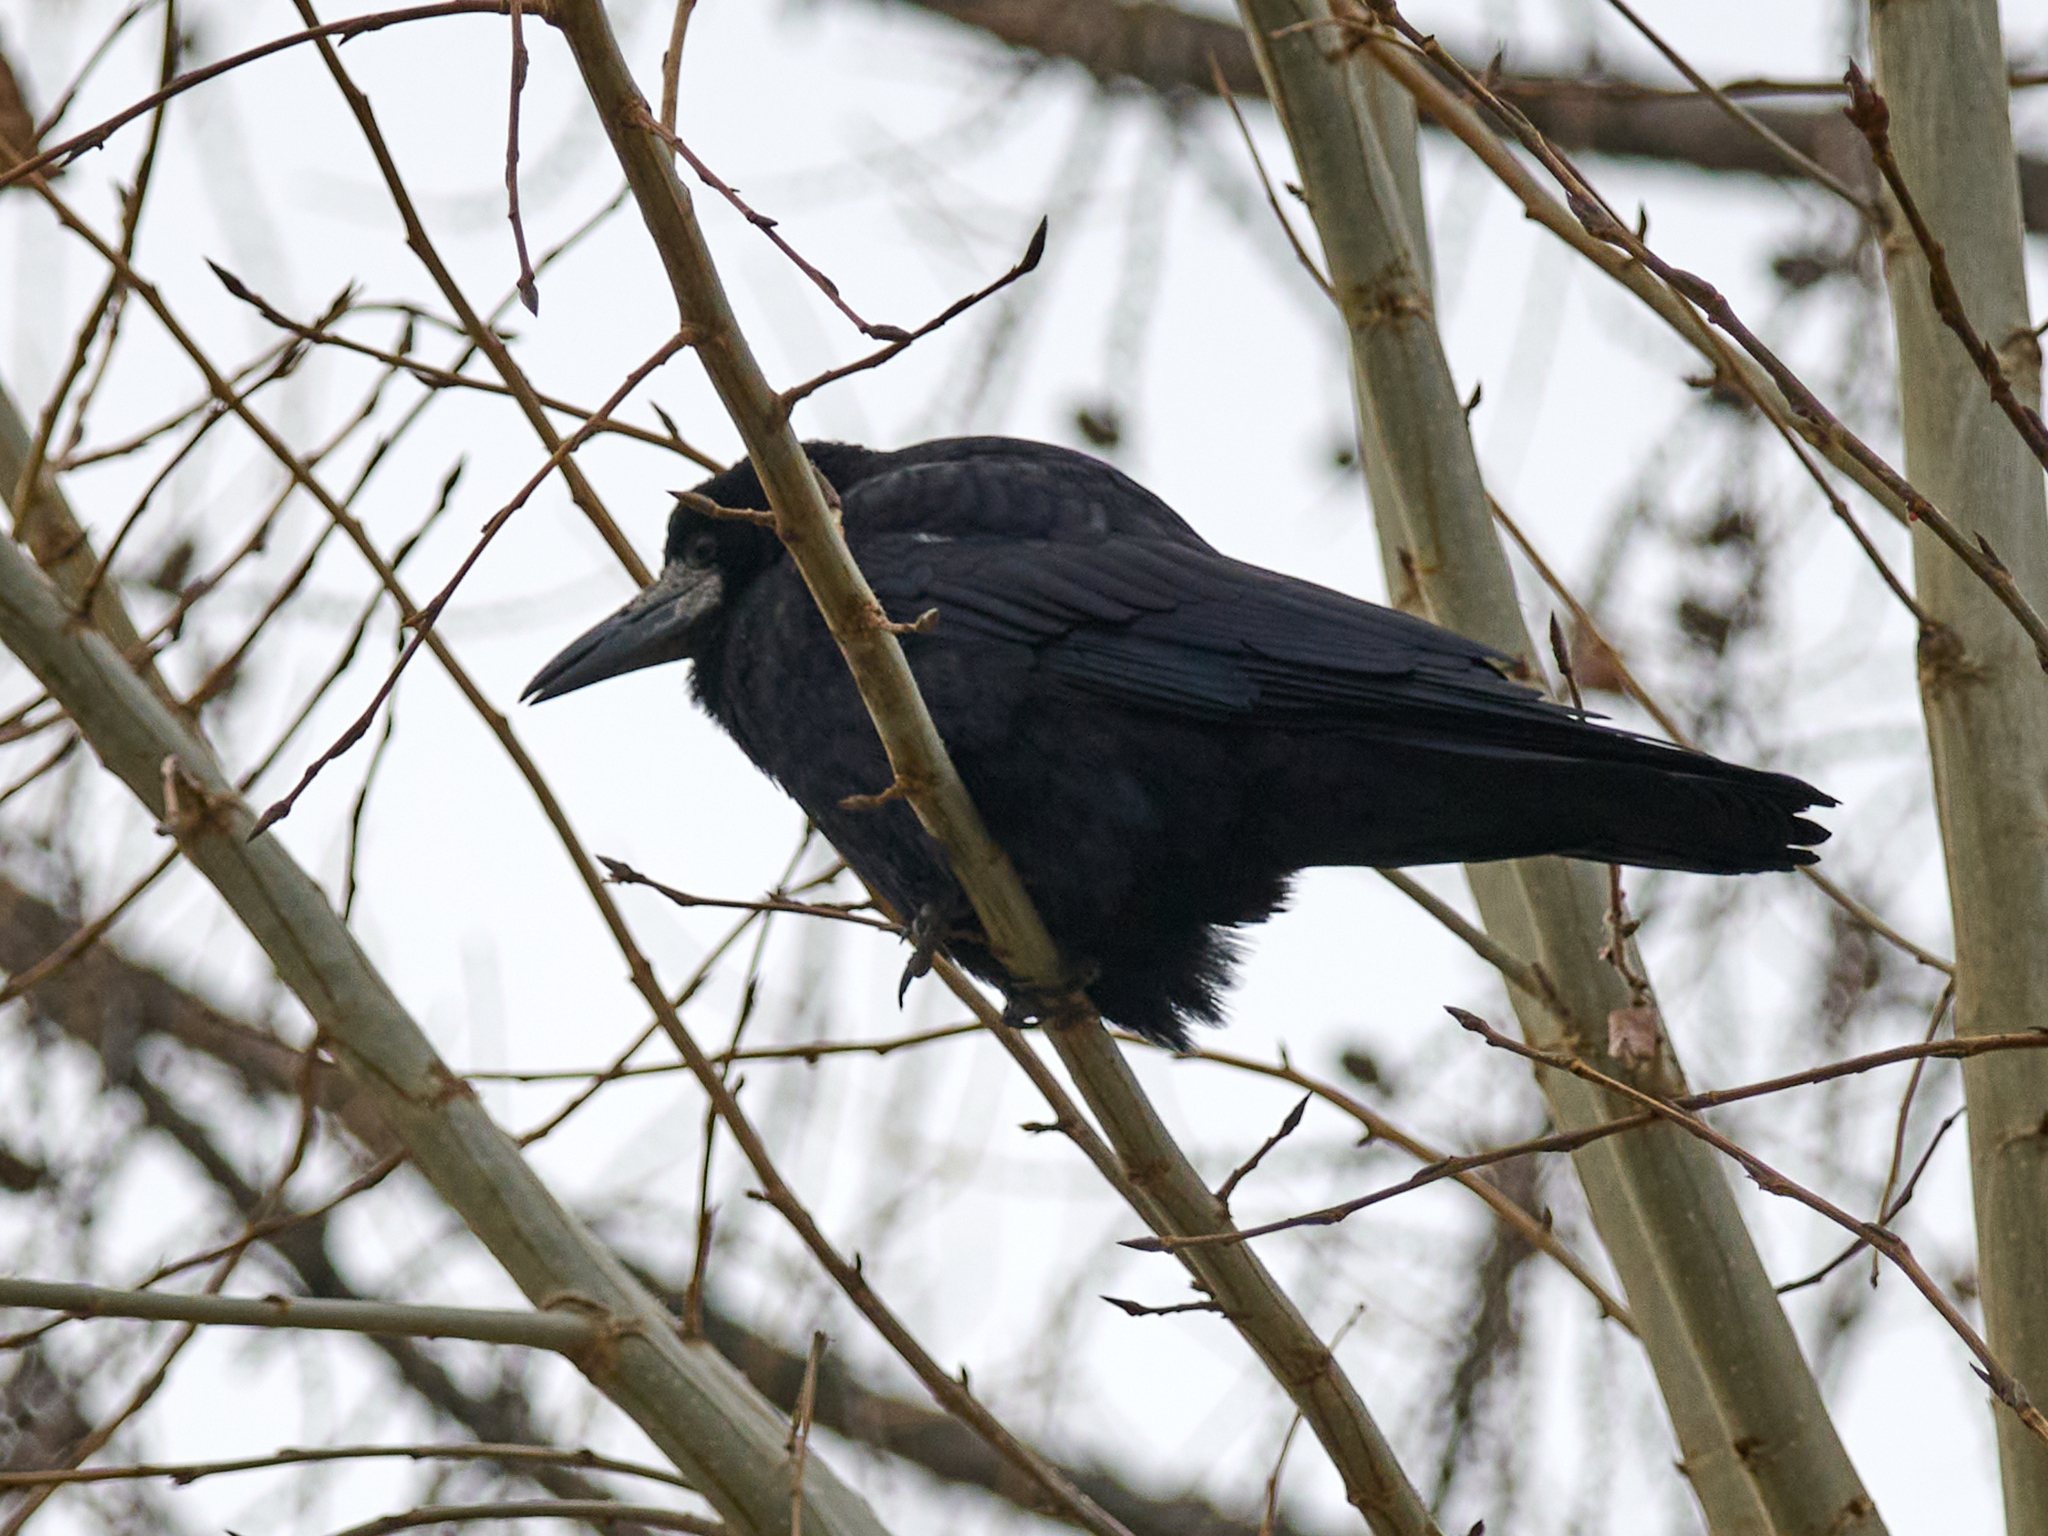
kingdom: Animalia
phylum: Chordata
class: Aves
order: Passeriformes
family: Corvidae
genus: Corvus
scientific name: Corvus frugilegus
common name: Rook
